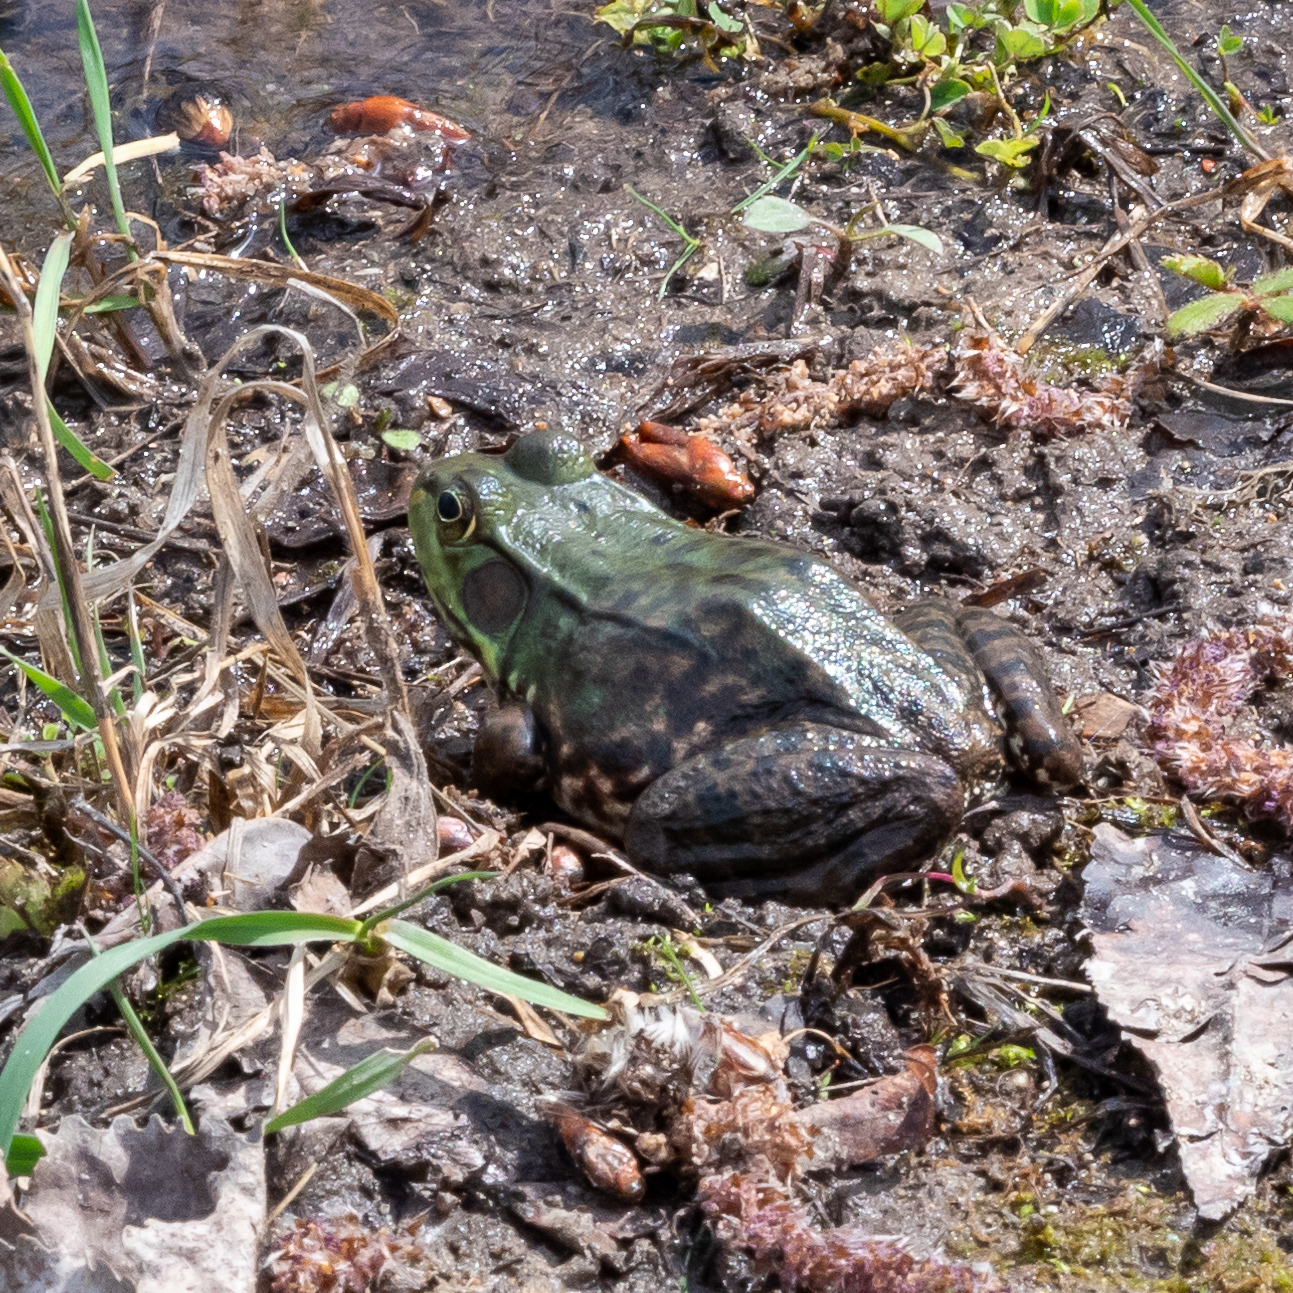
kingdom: Animalia
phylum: Chordata
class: Amphibia
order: Anura
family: Ranidae
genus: Lithobates
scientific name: Lithobates clamitans
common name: Green frog
